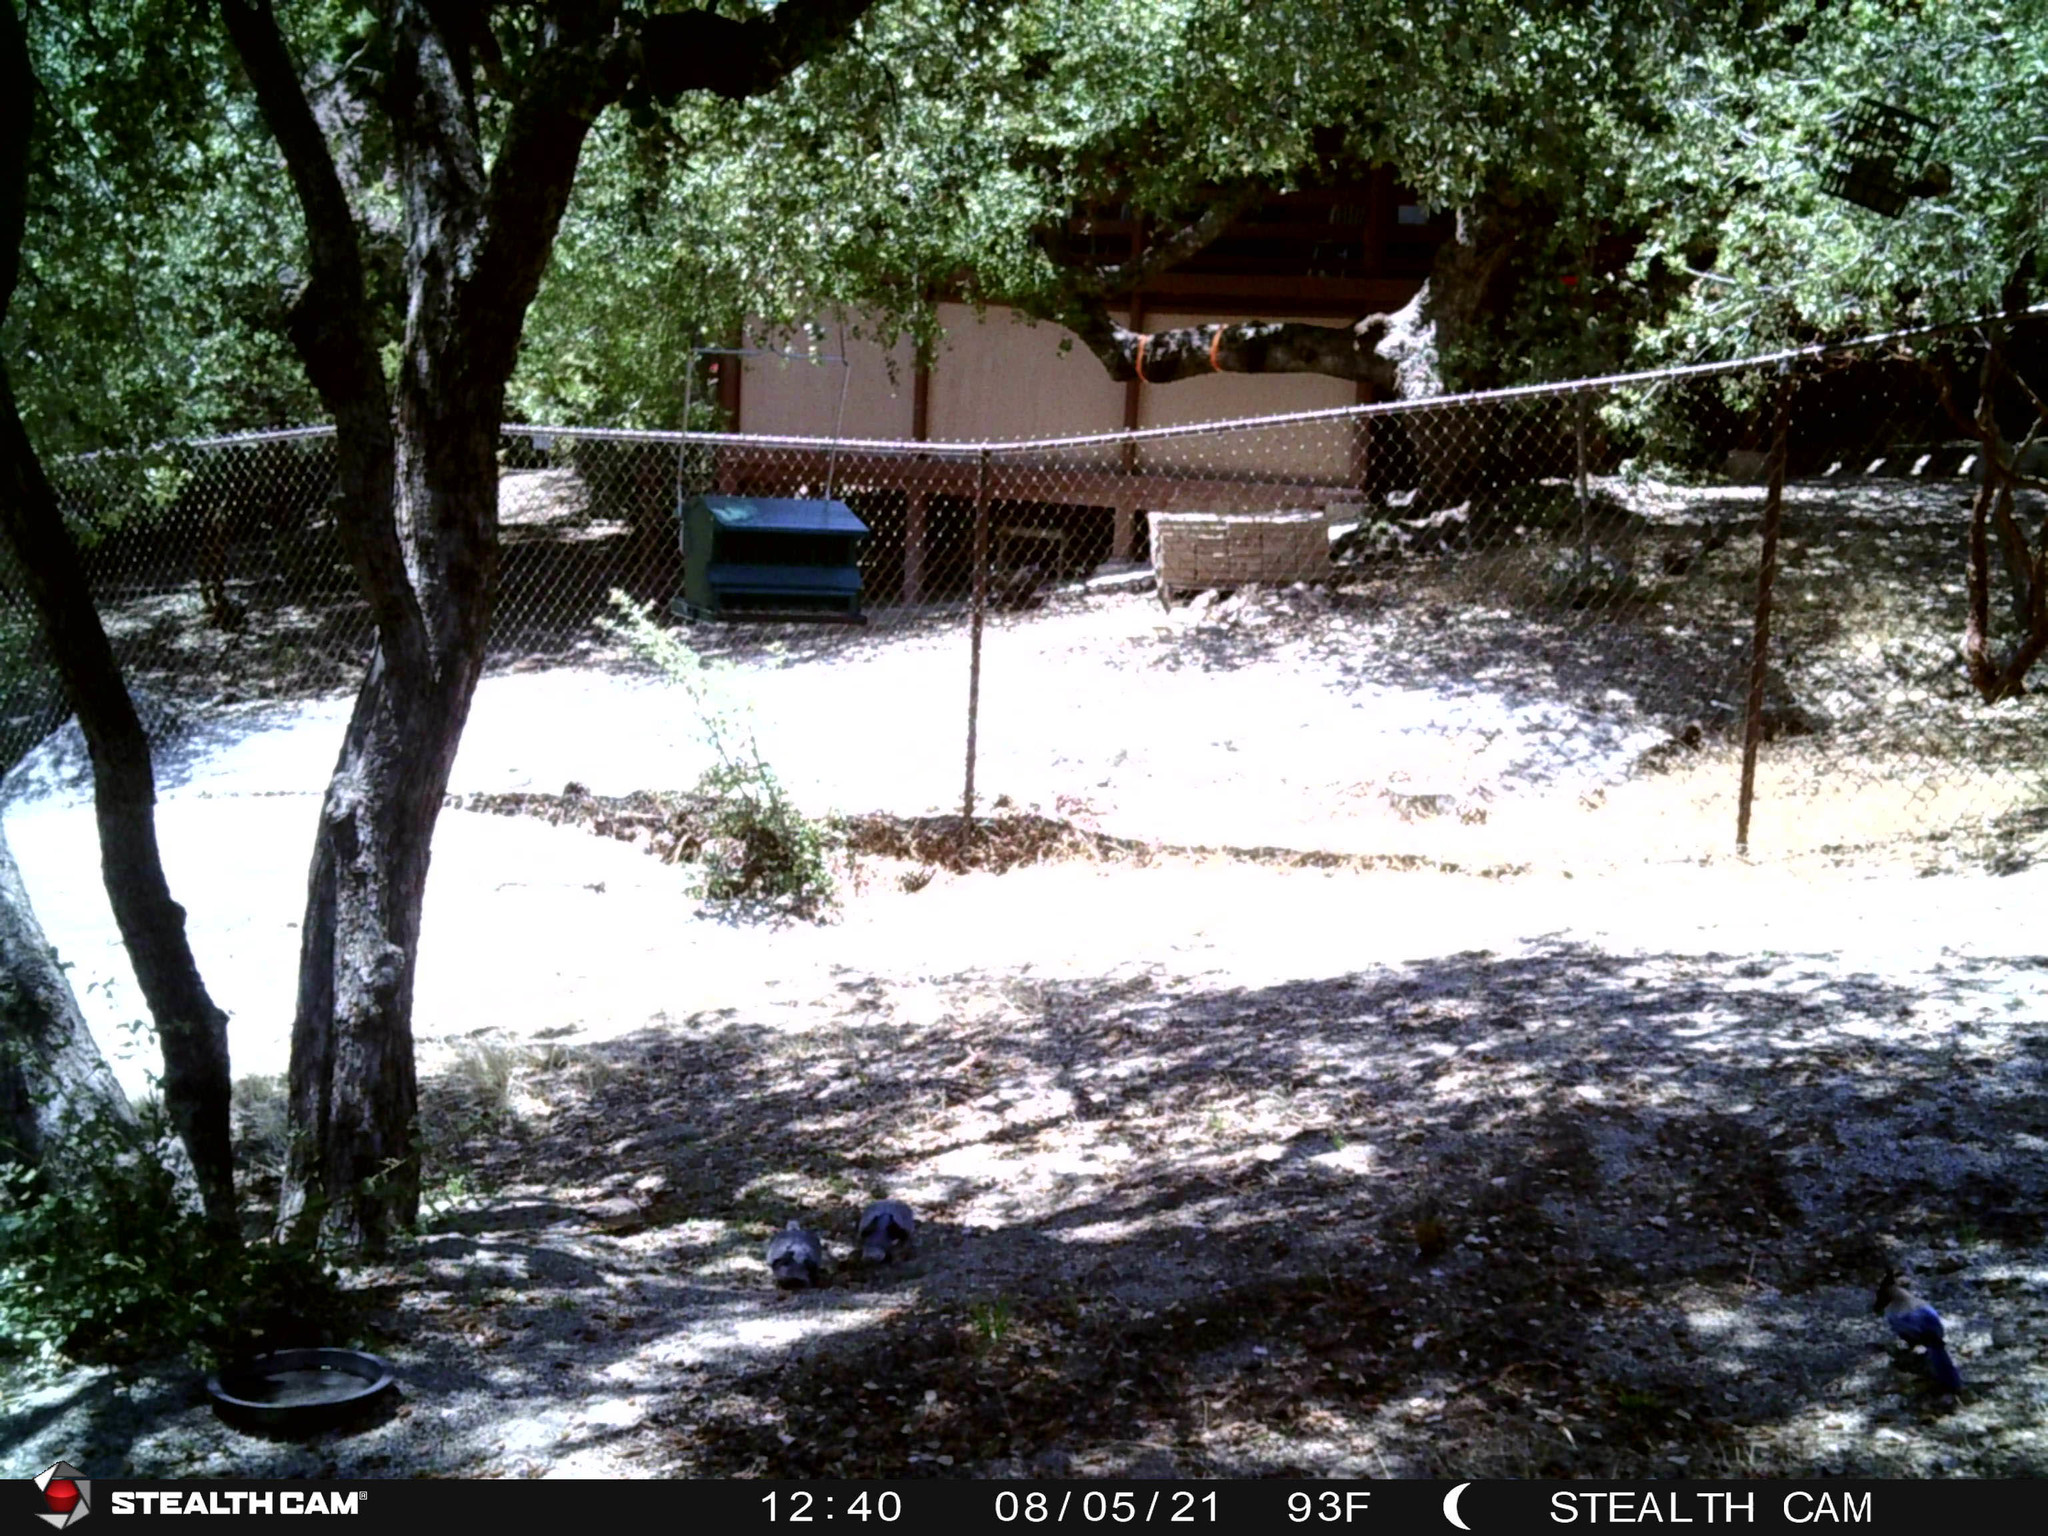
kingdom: Animalia
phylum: Chordata
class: Aves
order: Columbiformes
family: Columbidae
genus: Patagioenas
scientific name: Patagioenas fasciata
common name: Band-tailed pigeon
